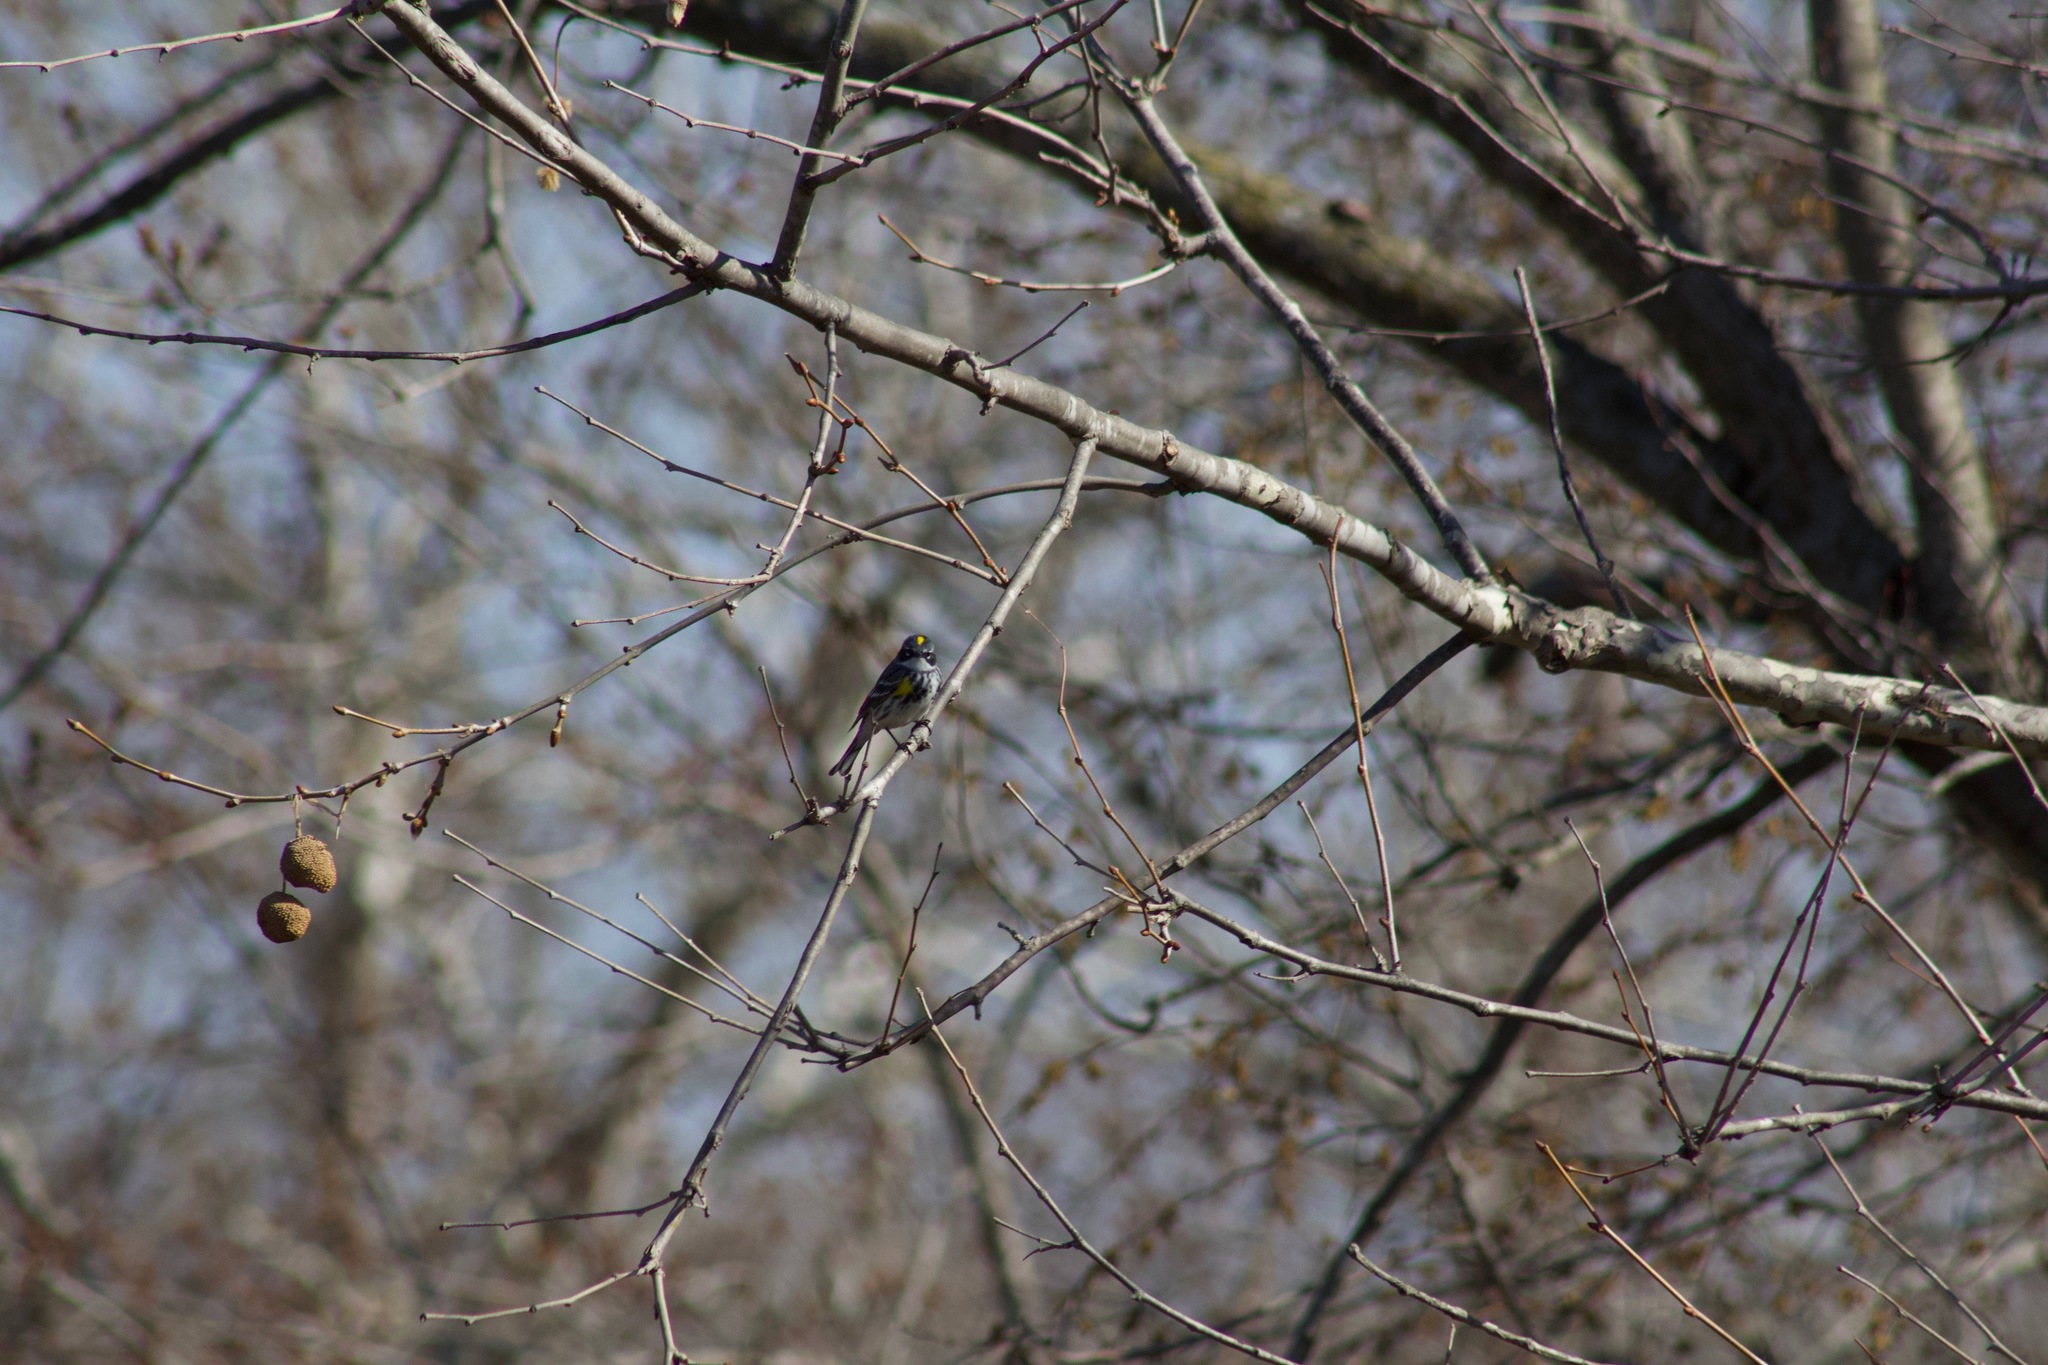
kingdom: Animalia
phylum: Chordata
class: Aves
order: Passeriformes
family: Parulidae
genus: Setophaga
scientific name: Setophaga coronata
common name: Myrtle warbler
